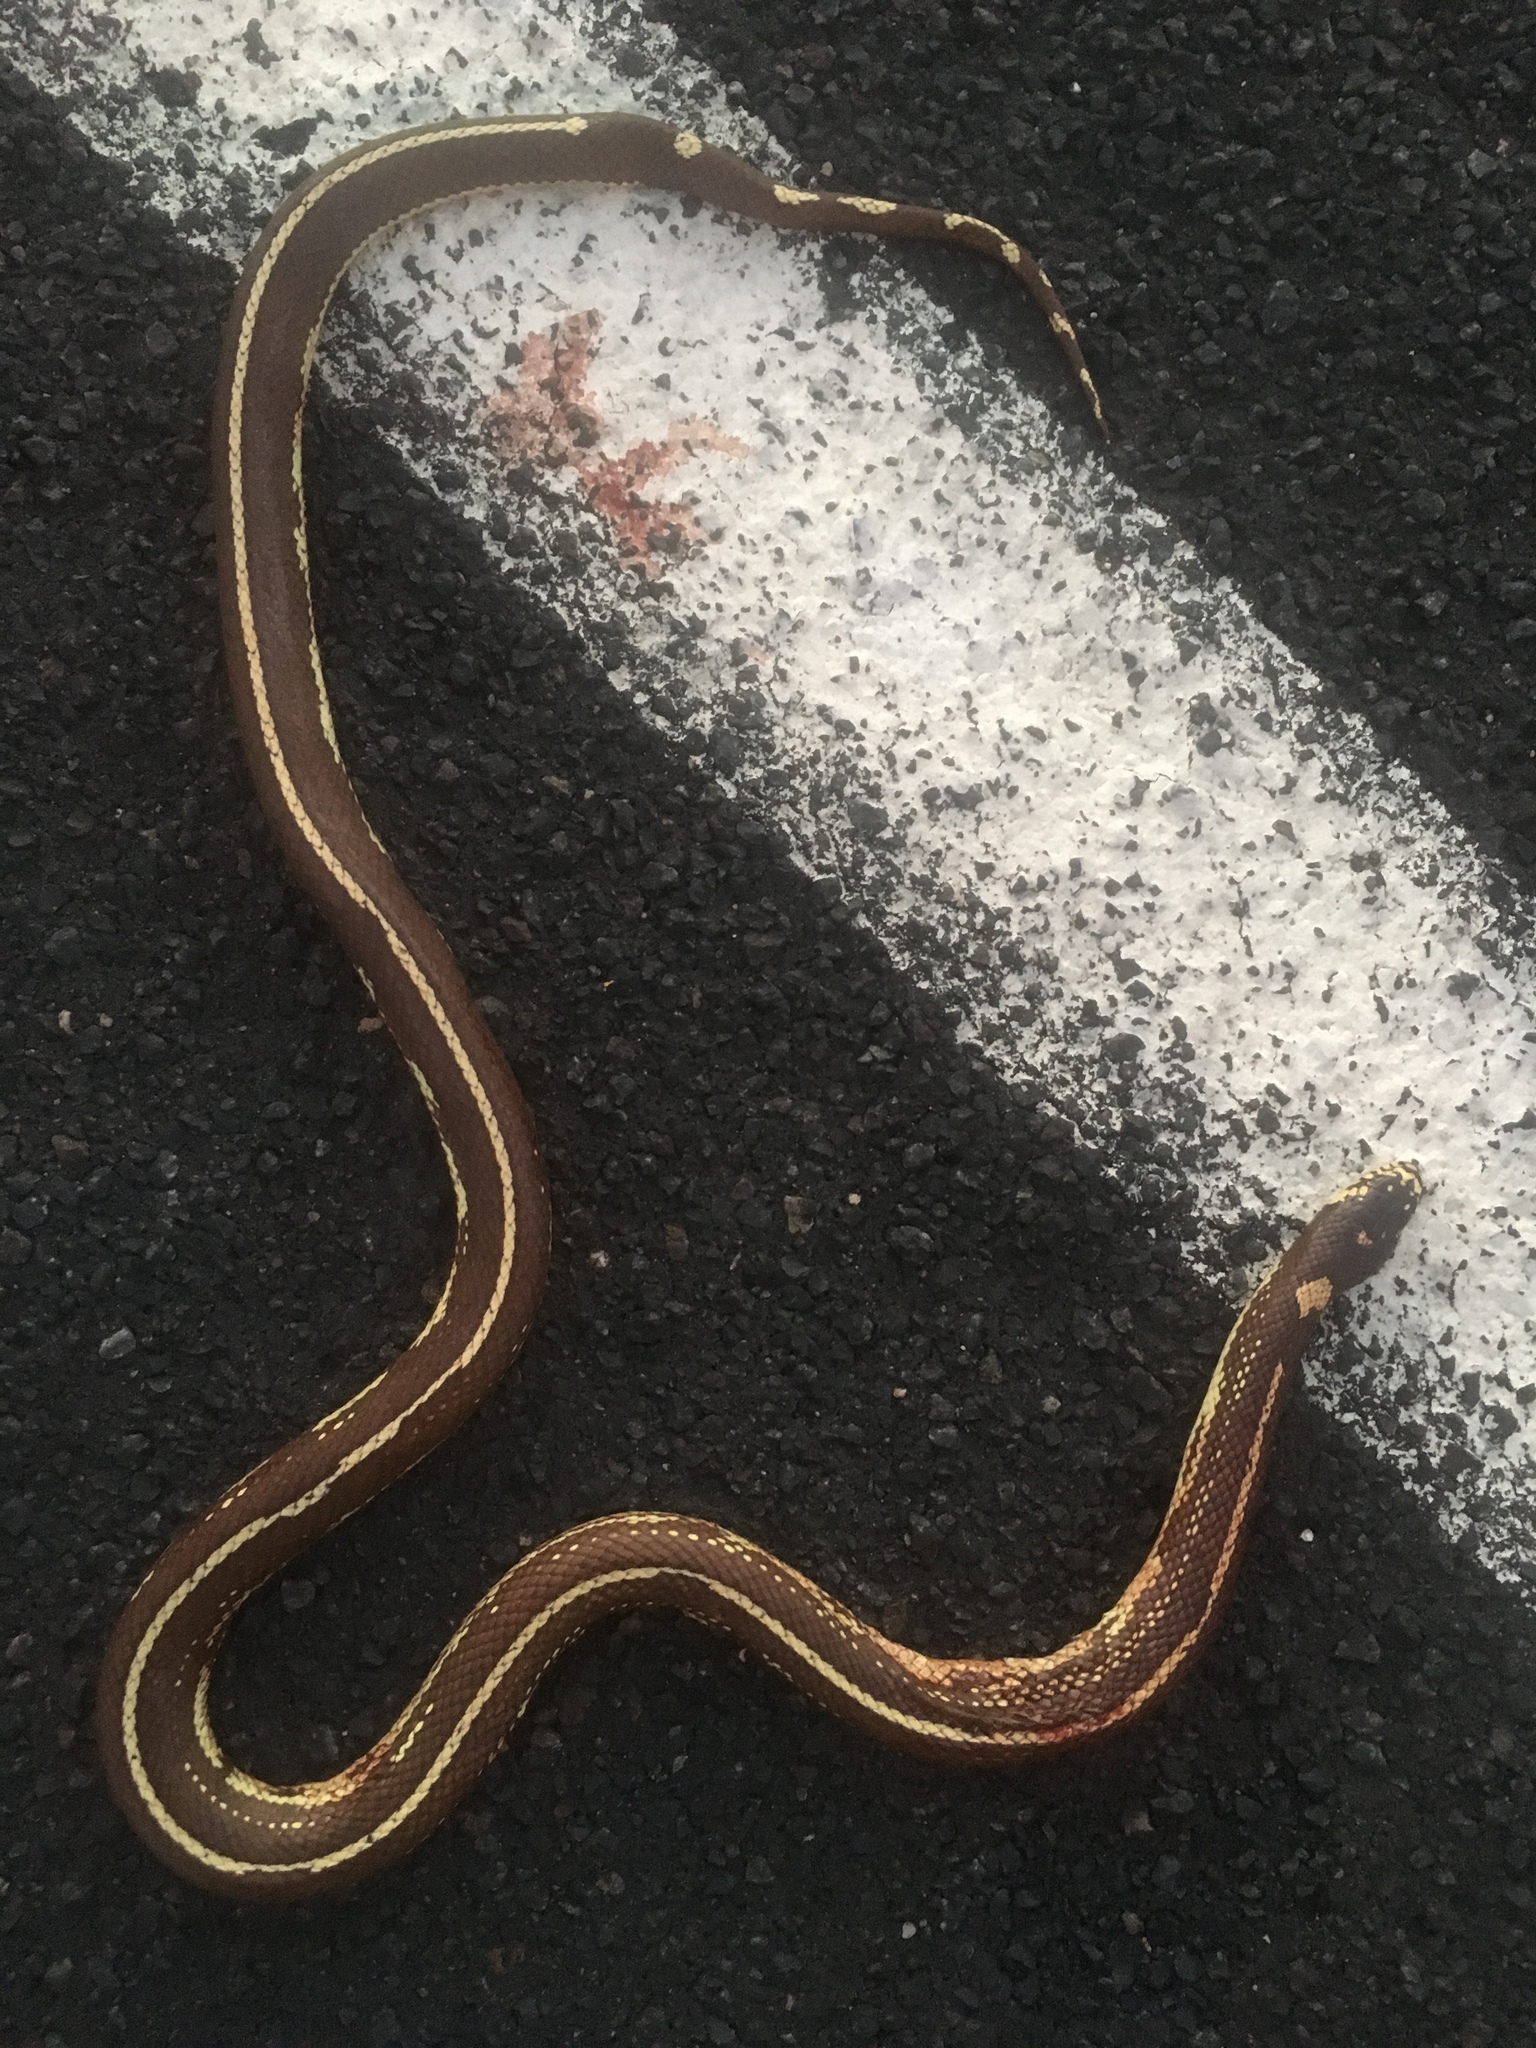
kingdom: Animalia
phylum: Chordata
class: Squamata
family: Colubridae
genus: Lampropeltis
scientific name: Lampropeltis californiae
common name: California kingsnake
